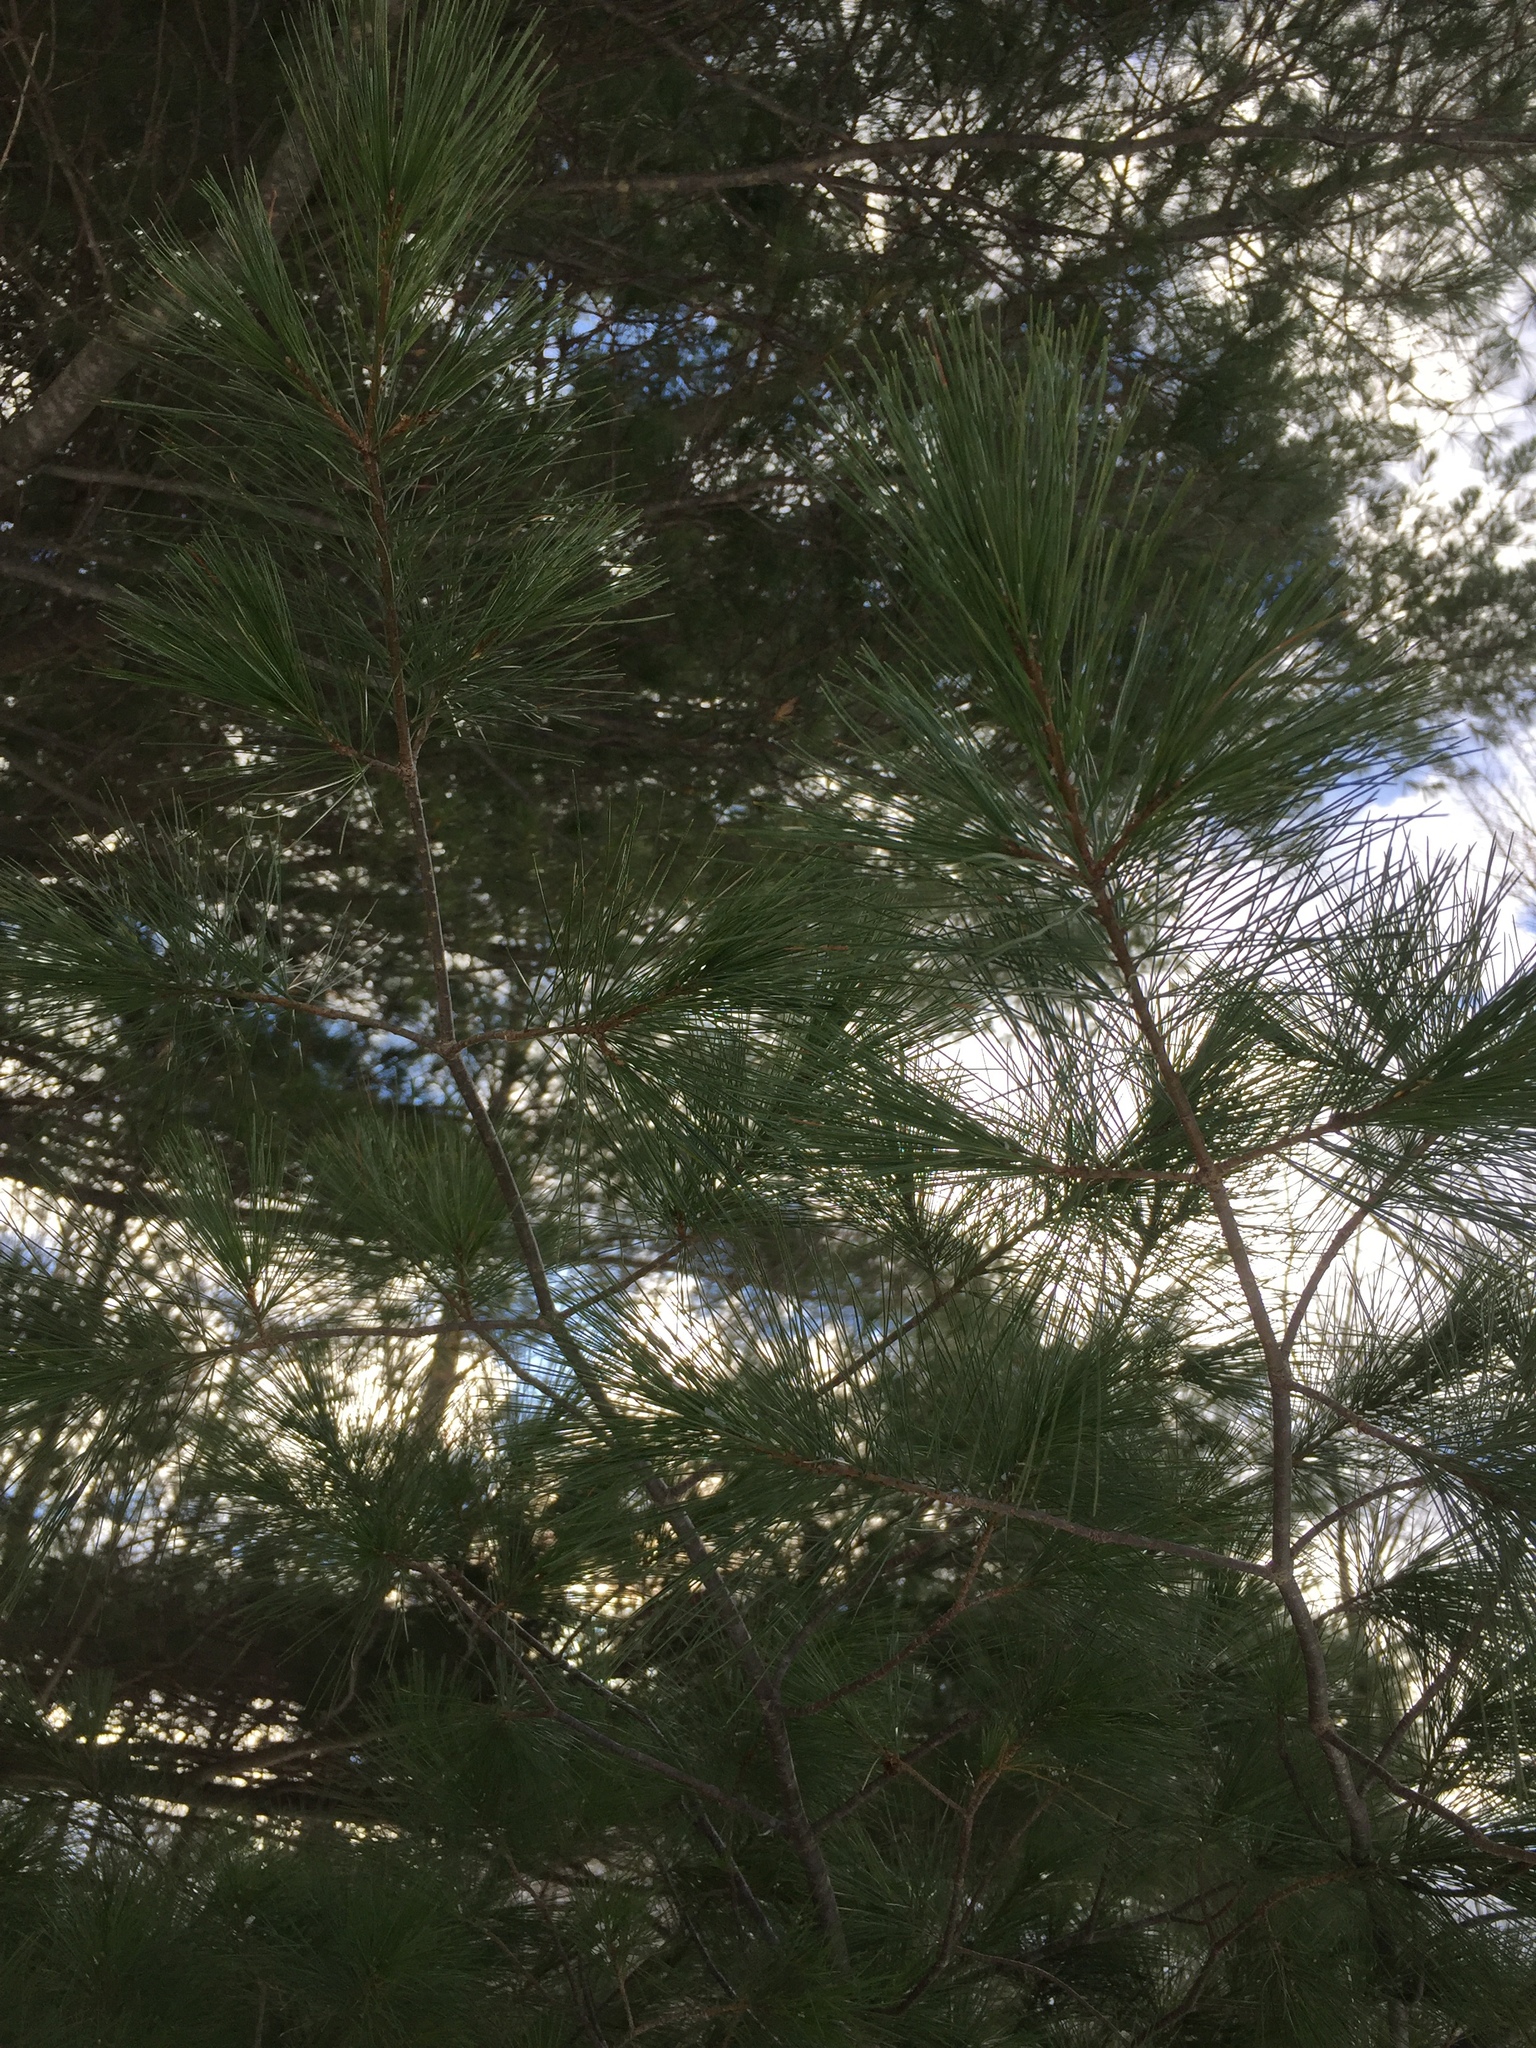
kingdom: Plantae
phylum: Tracheophyta
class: Pinopsida
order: Pinales
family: Pinaceae
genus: Pinus
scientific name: Pinus strobus
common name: Weymouth pine
